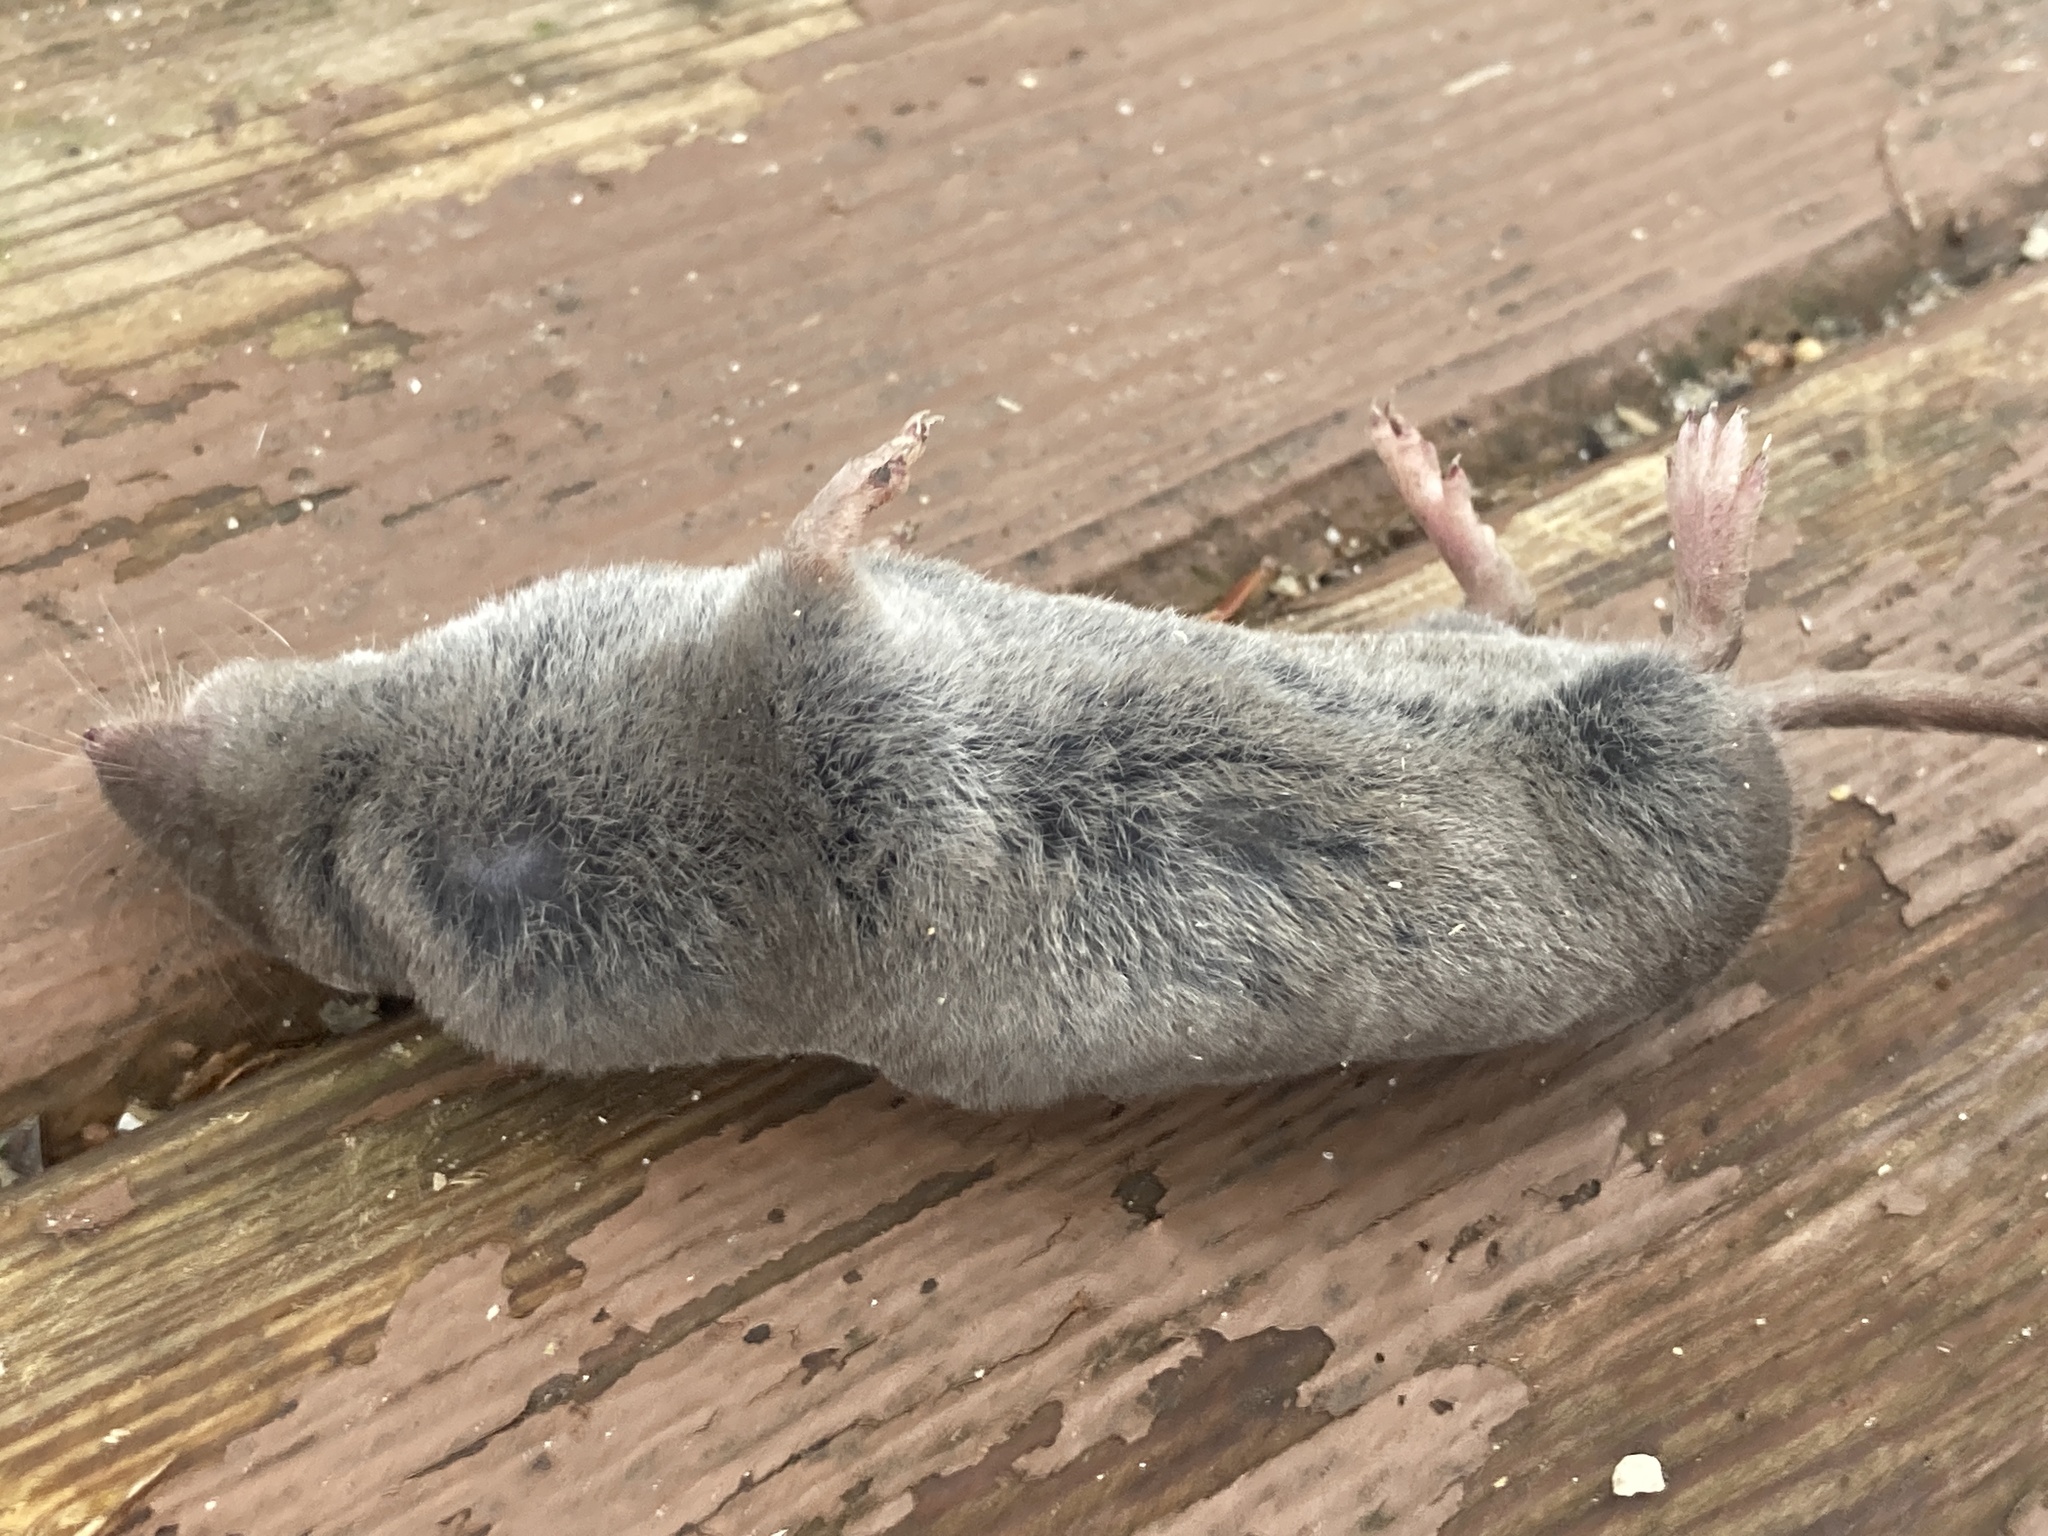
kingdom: Animalia
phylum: Chordata
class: Mammalia
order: Soricomorpha
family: Soricidae
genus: Blarina
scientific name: Blarina brevicauda
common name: Northern short-tailed shrew
